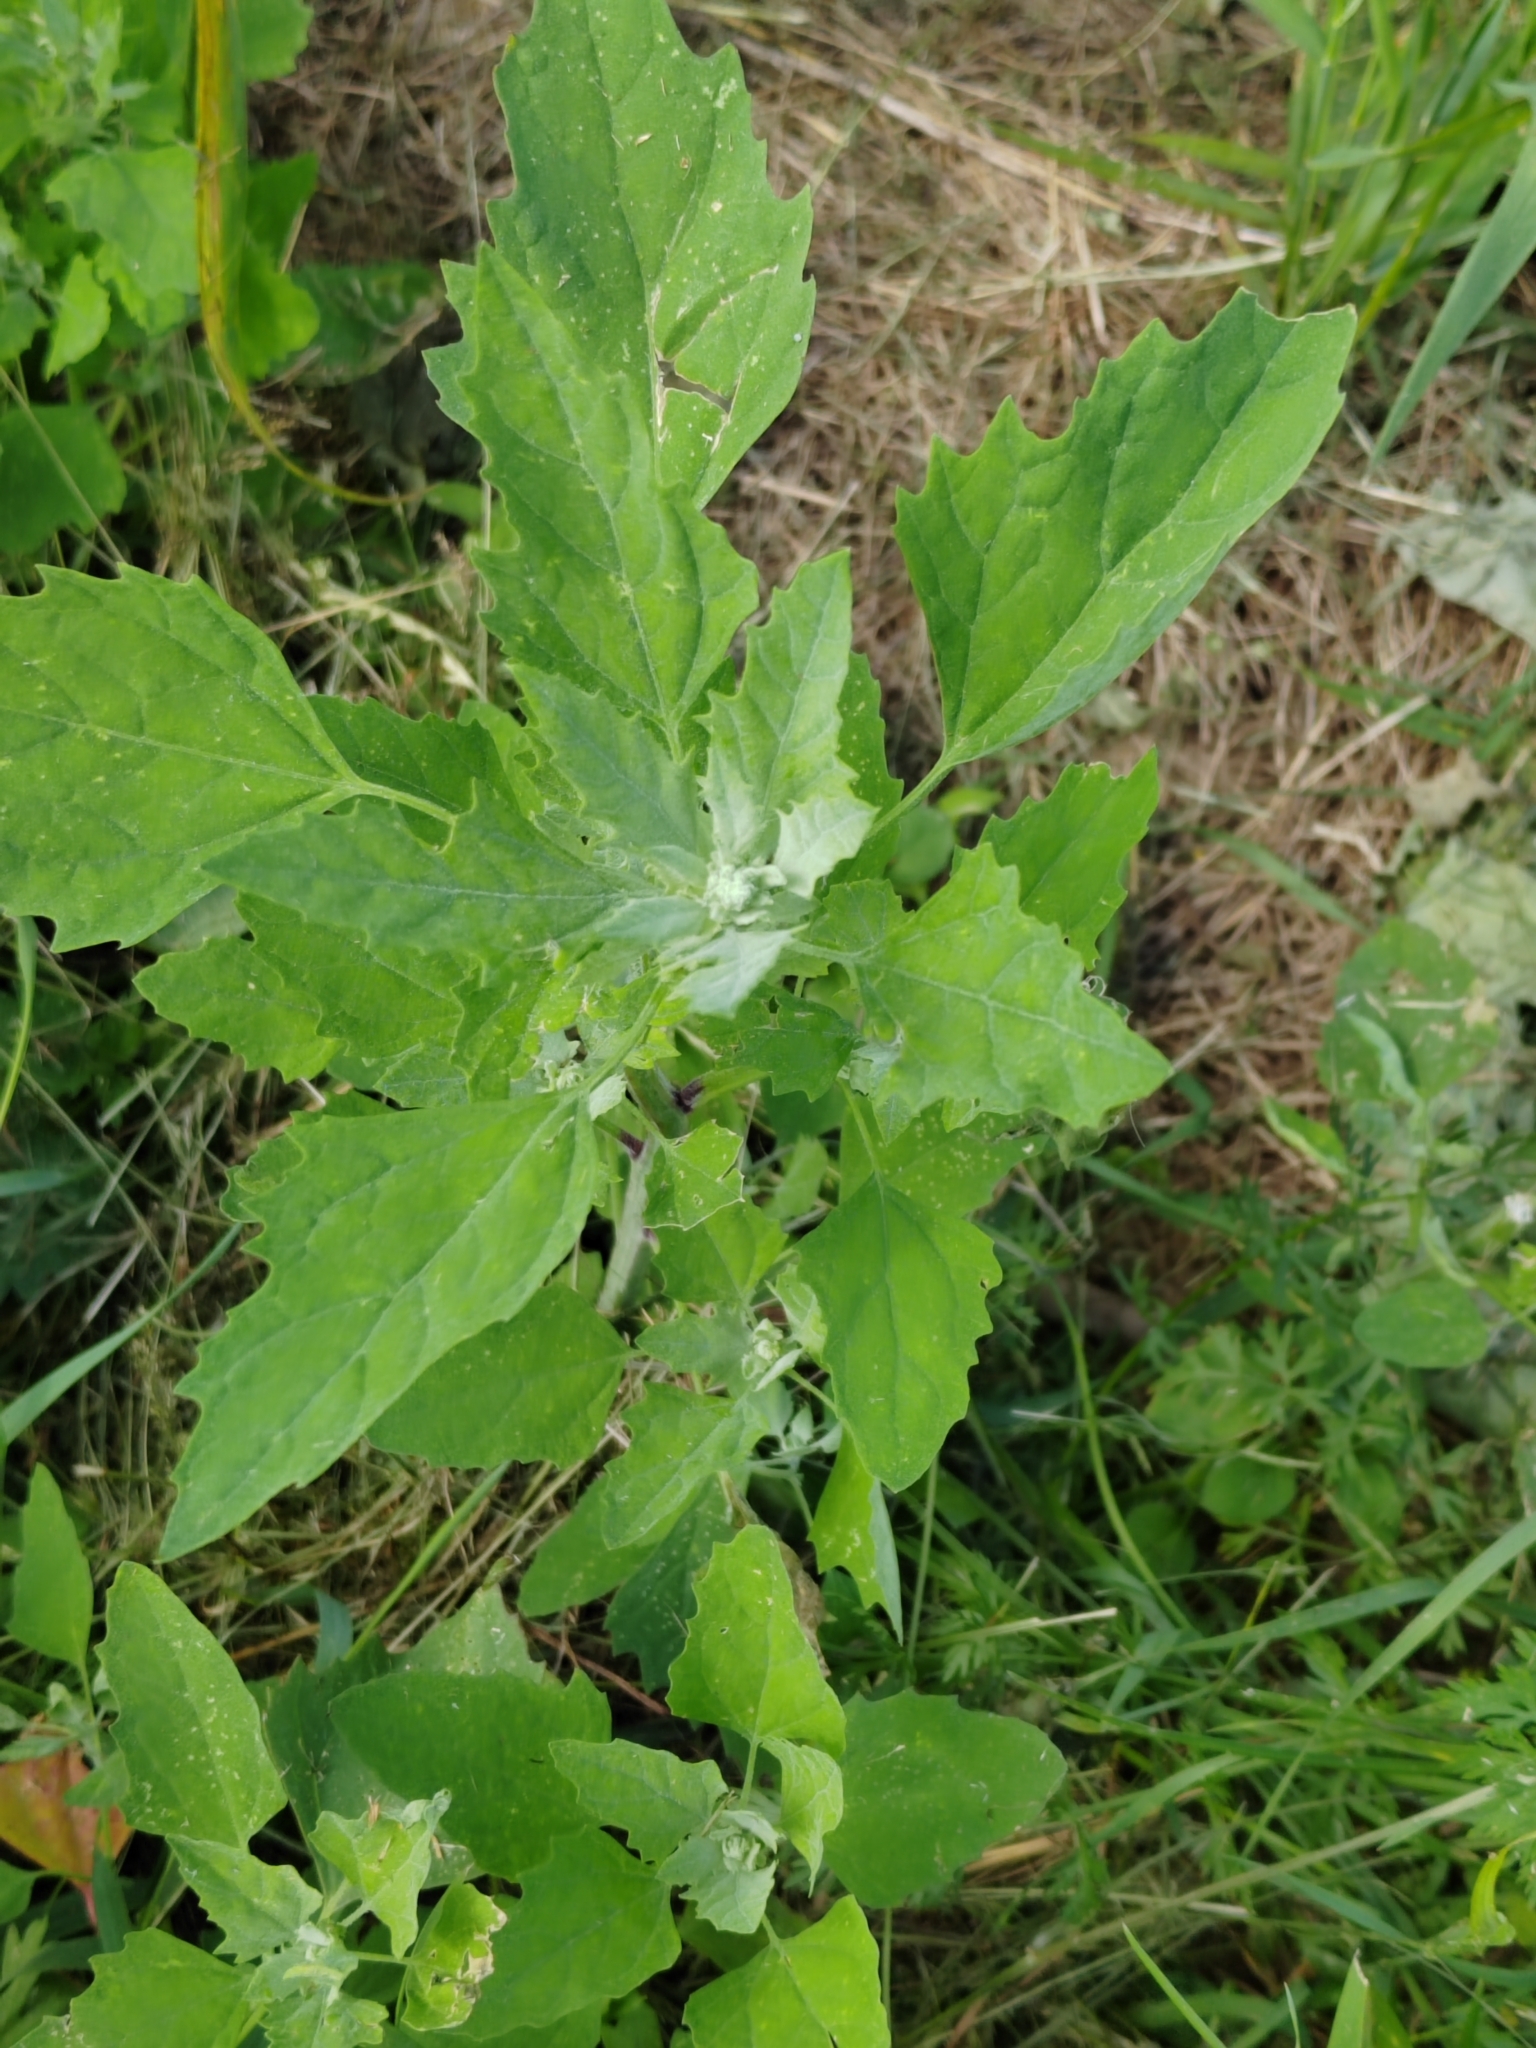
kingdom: Plantae
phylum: Tracheophyta
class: Magnoliopsida
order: Caryophyllales
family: Amaranthaceae
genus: Chenopodium
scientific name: Chenopodium album
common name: Fat-hen
